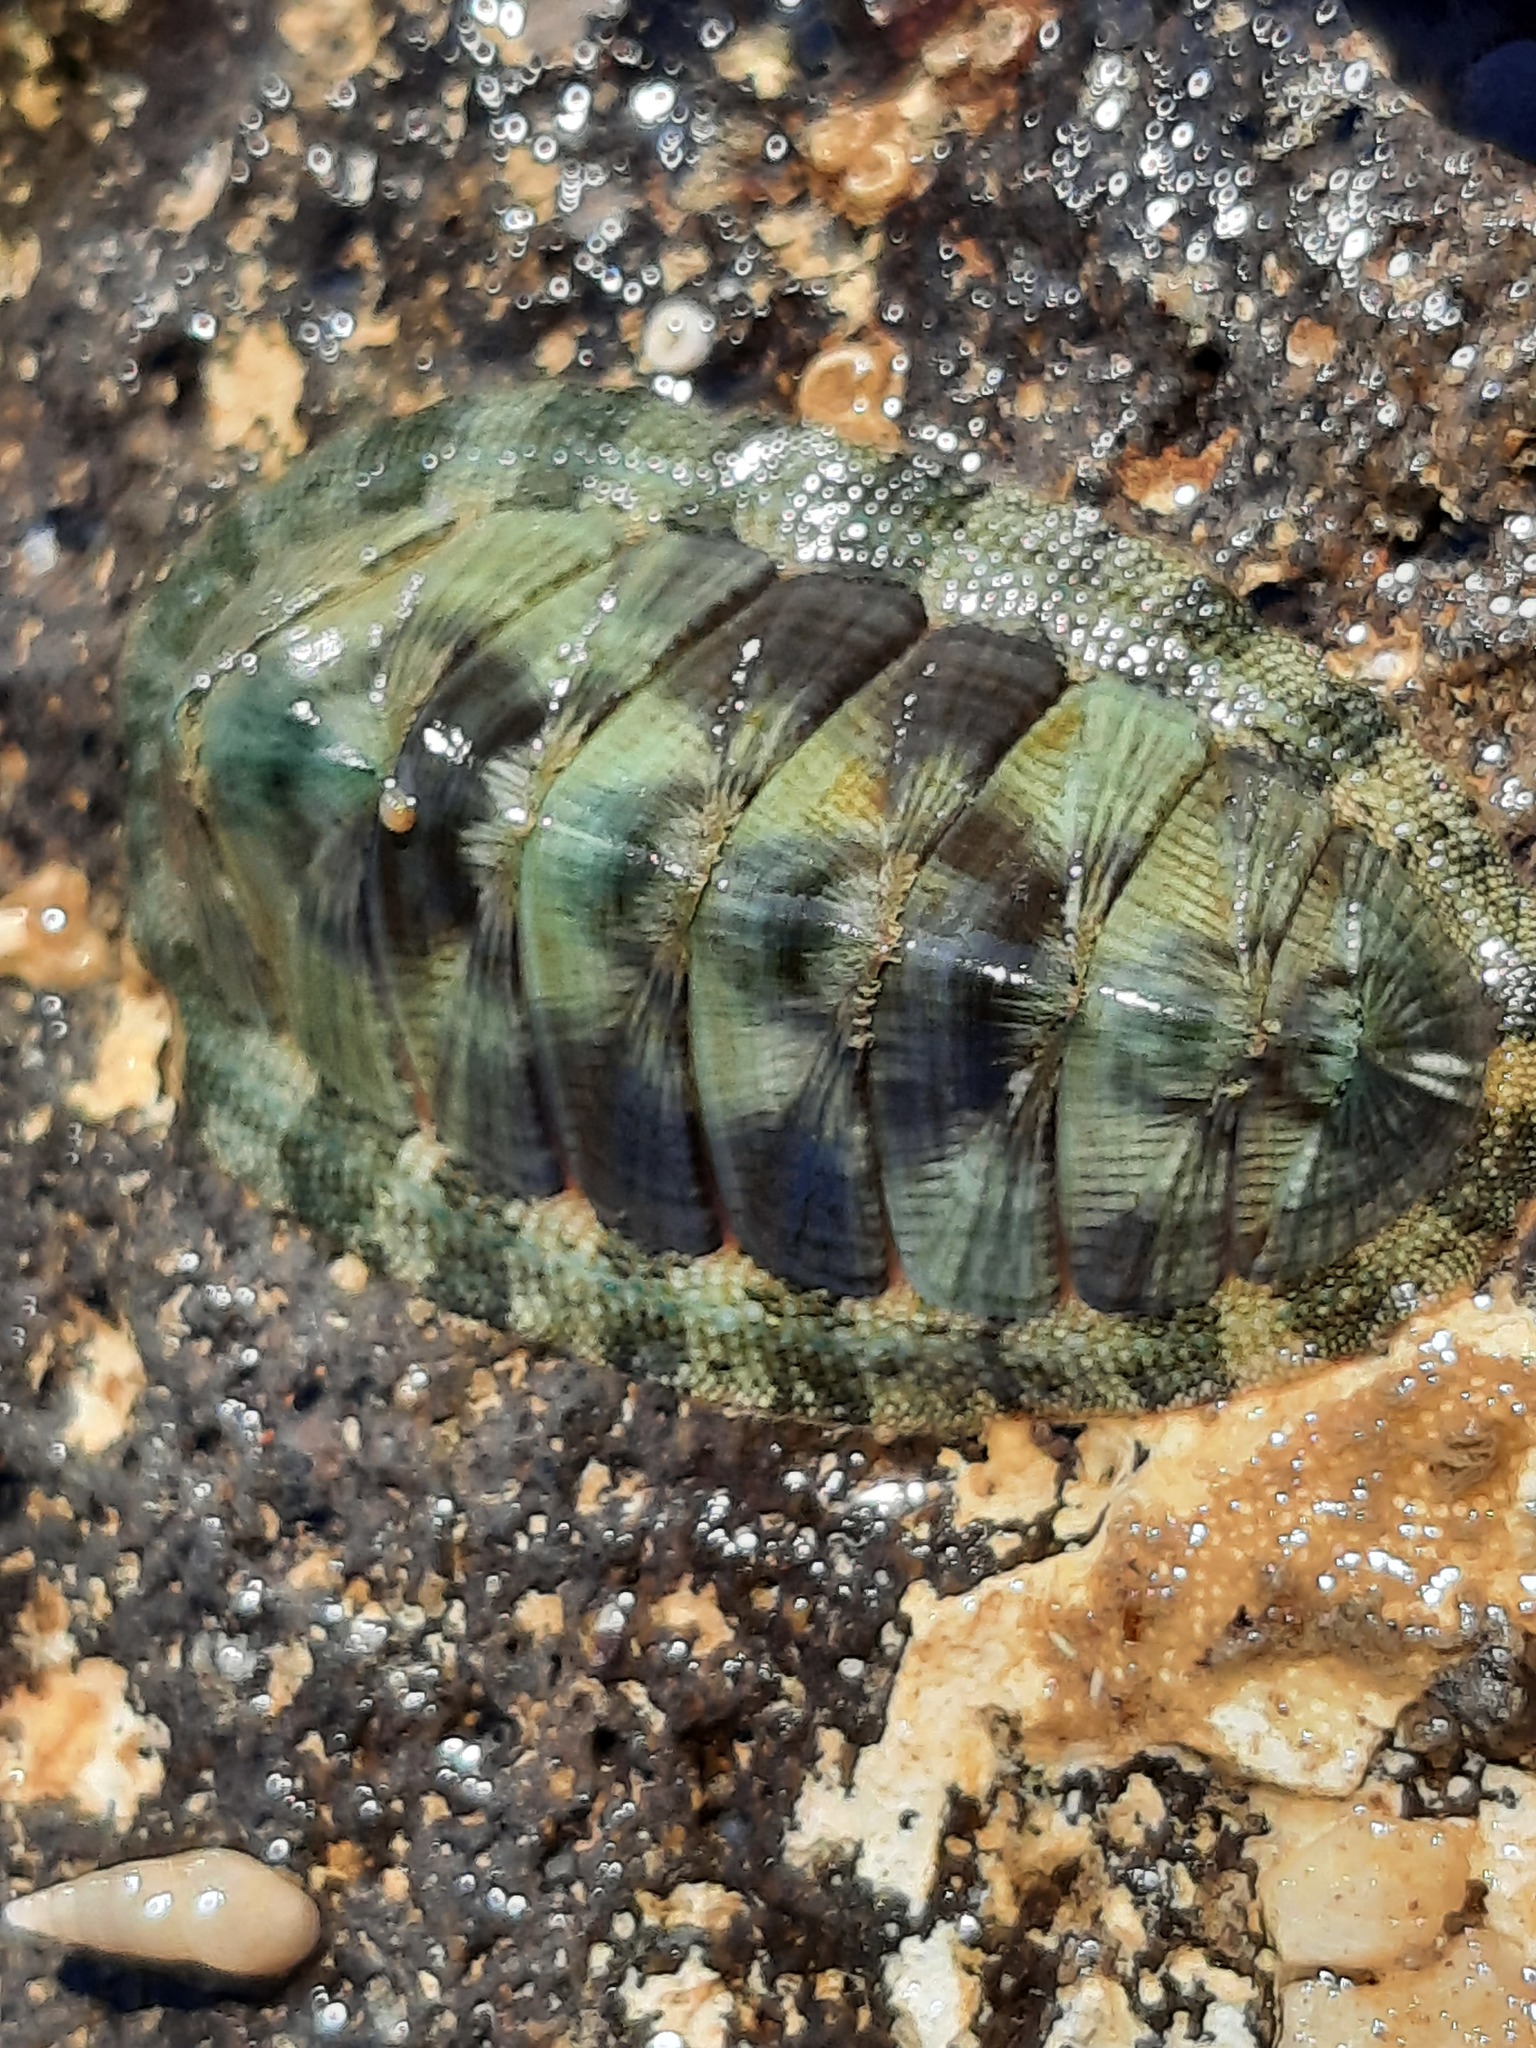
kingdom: Animalia
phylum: Mollusca
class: Polyplacophora
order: Chitonida
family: Chitonidae
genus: Rhyssoplax
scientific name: Rhyssoplax aerea
